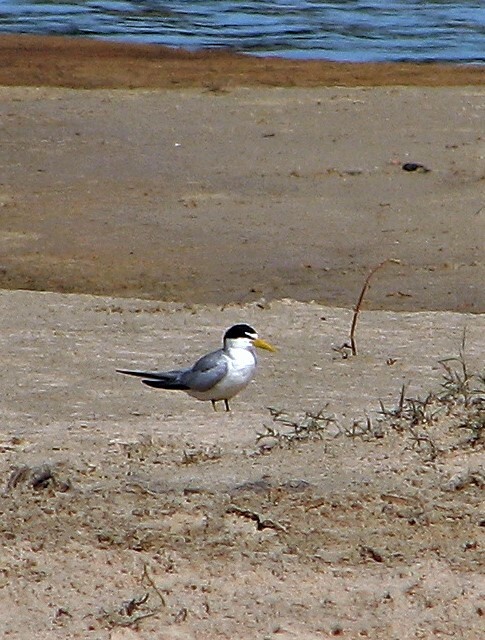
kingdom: Animalia
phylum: Chordata
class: Aves
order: Charadriiformes
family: Laridae
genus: Sternula
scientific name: Sternula superciliaris
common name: Yellow-billed tern
